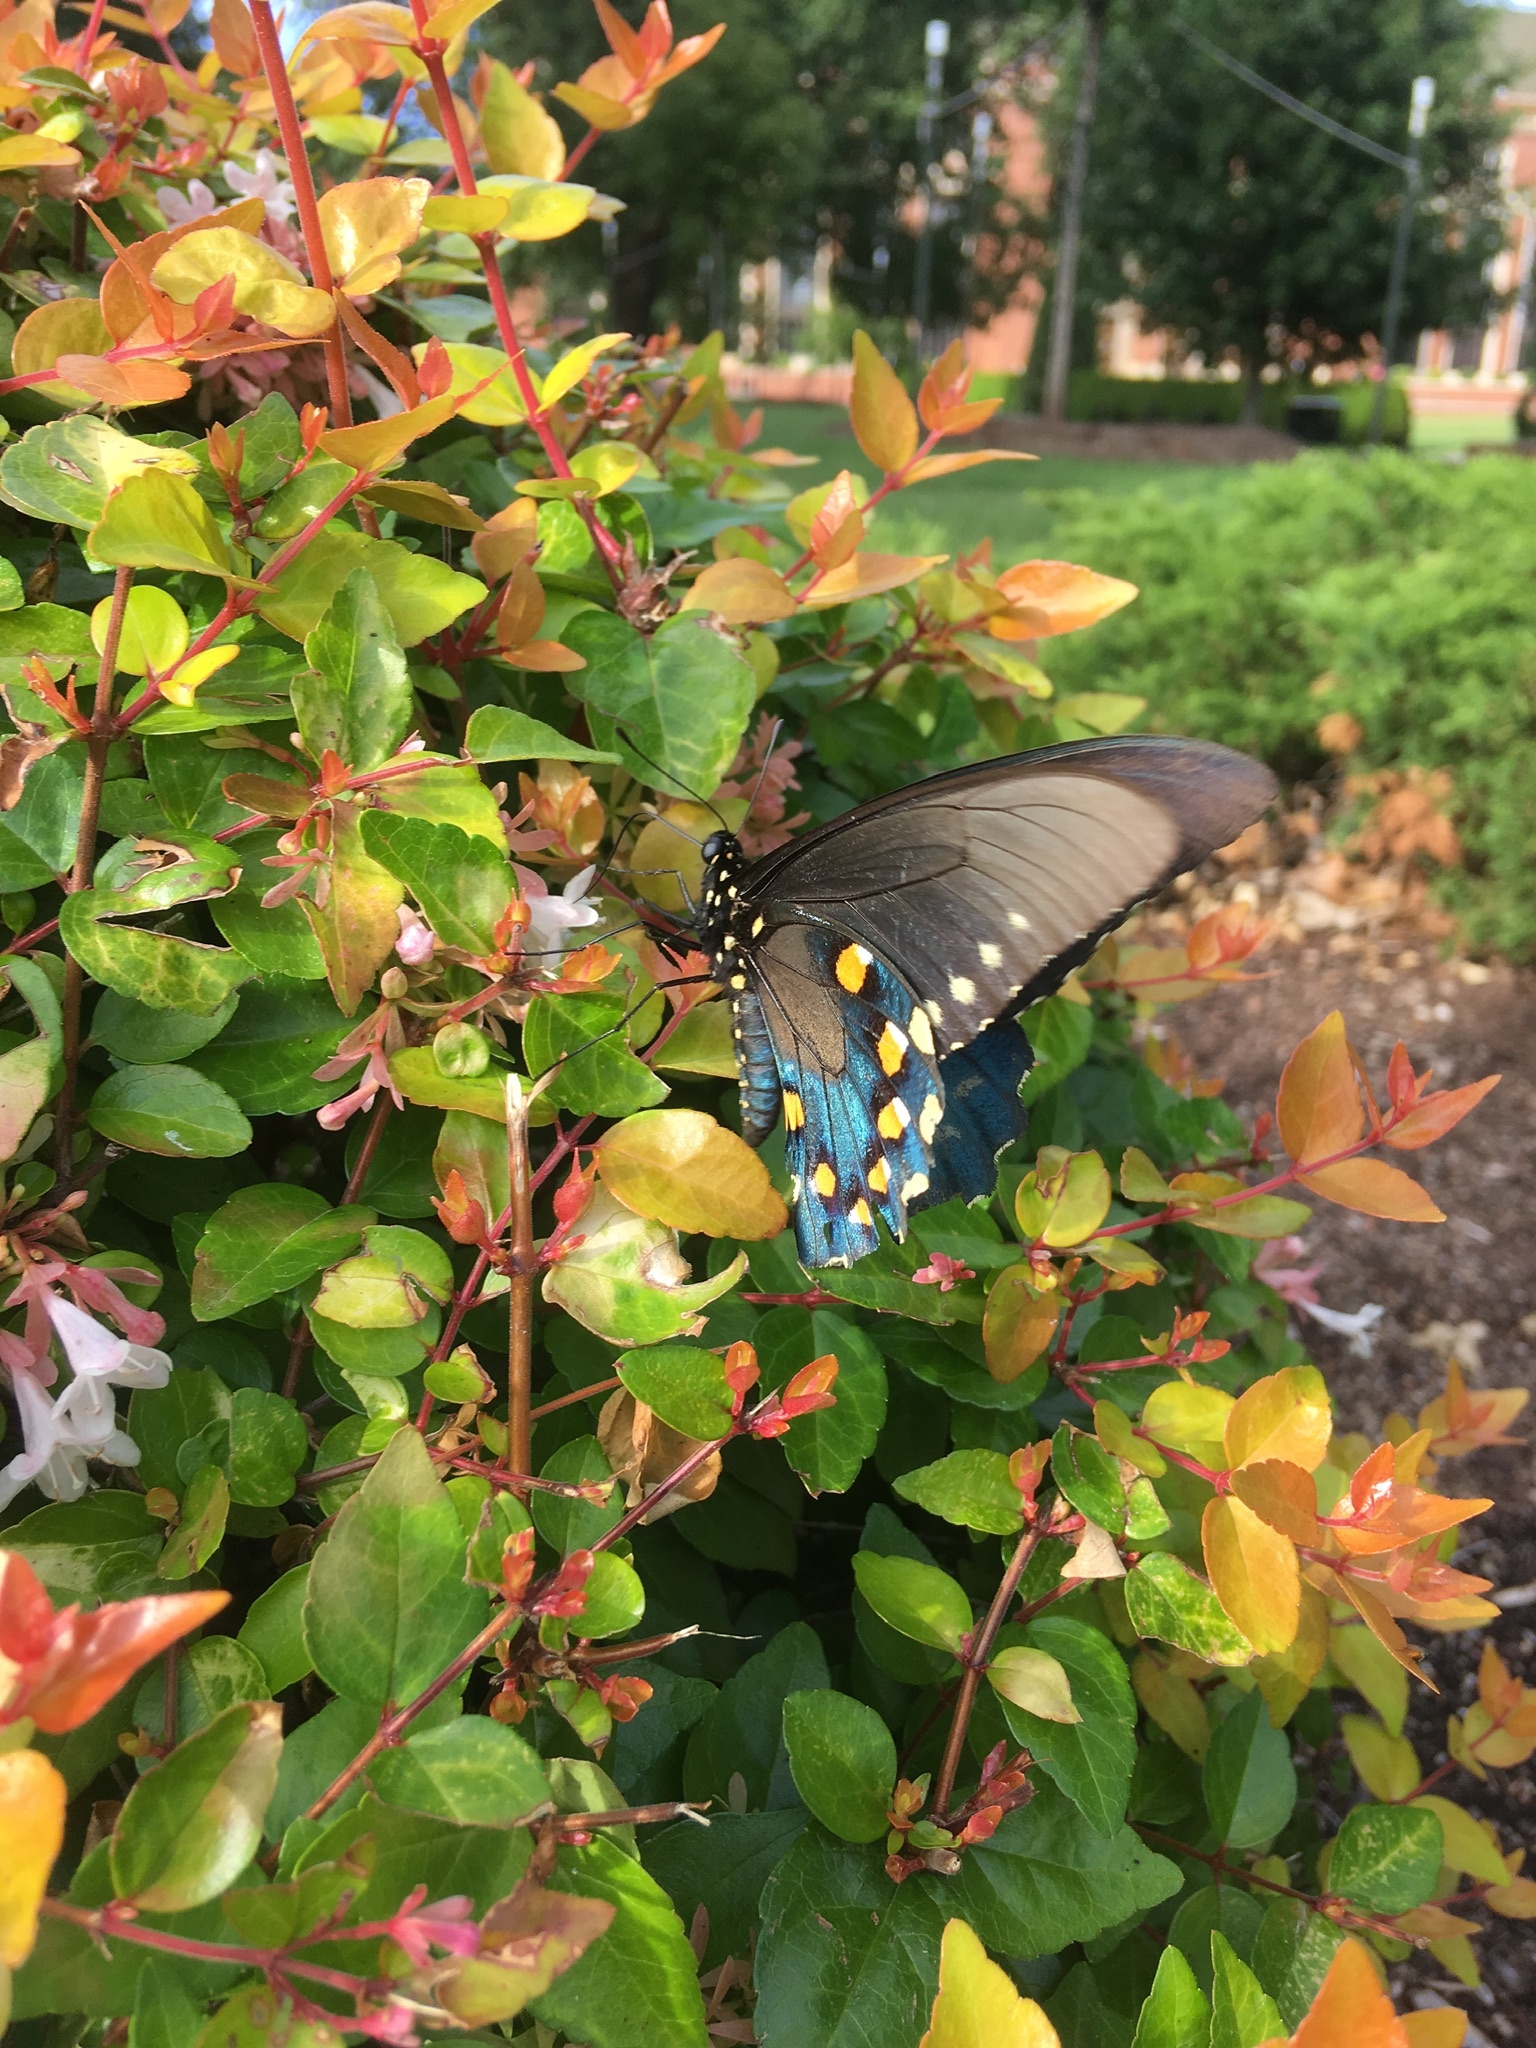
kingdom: Animalia
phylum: Arthropoda
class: Insecta
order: Lepidoptera
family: Papilionidae
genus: Battus
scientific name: Battus philenor
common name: Pipevine swallowtail
